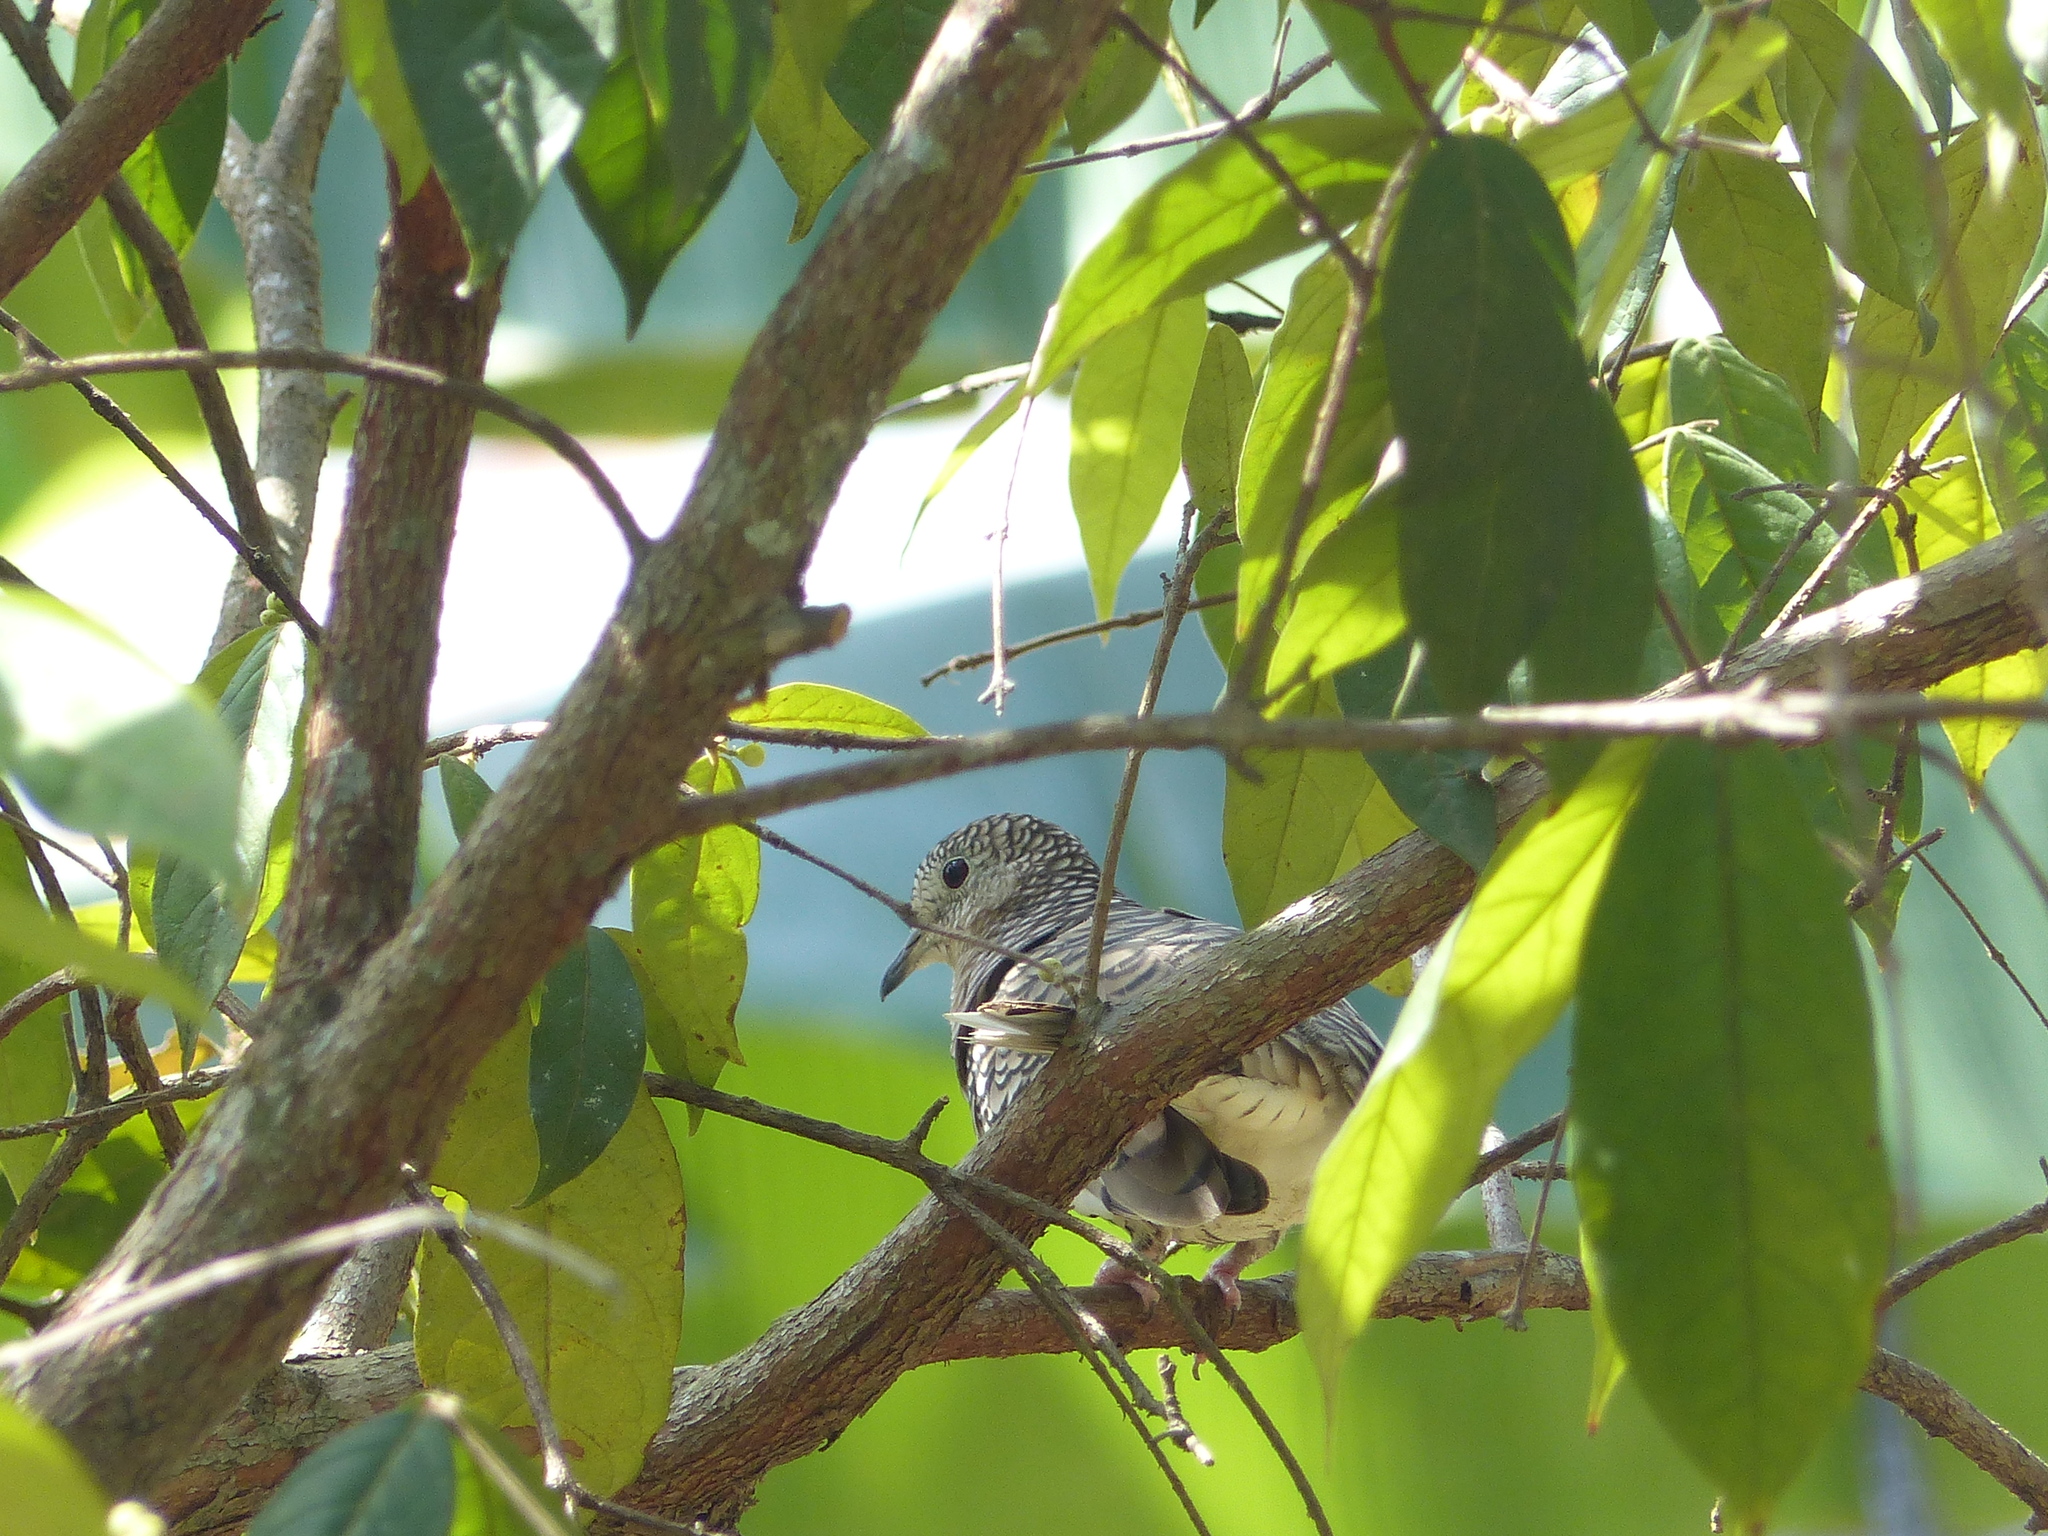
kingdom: Animalia
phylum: Chordata
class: Aves
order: Columbiformes
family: Columbidae
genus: Columbina
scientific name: Columbina squammata
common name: Scaled dove
